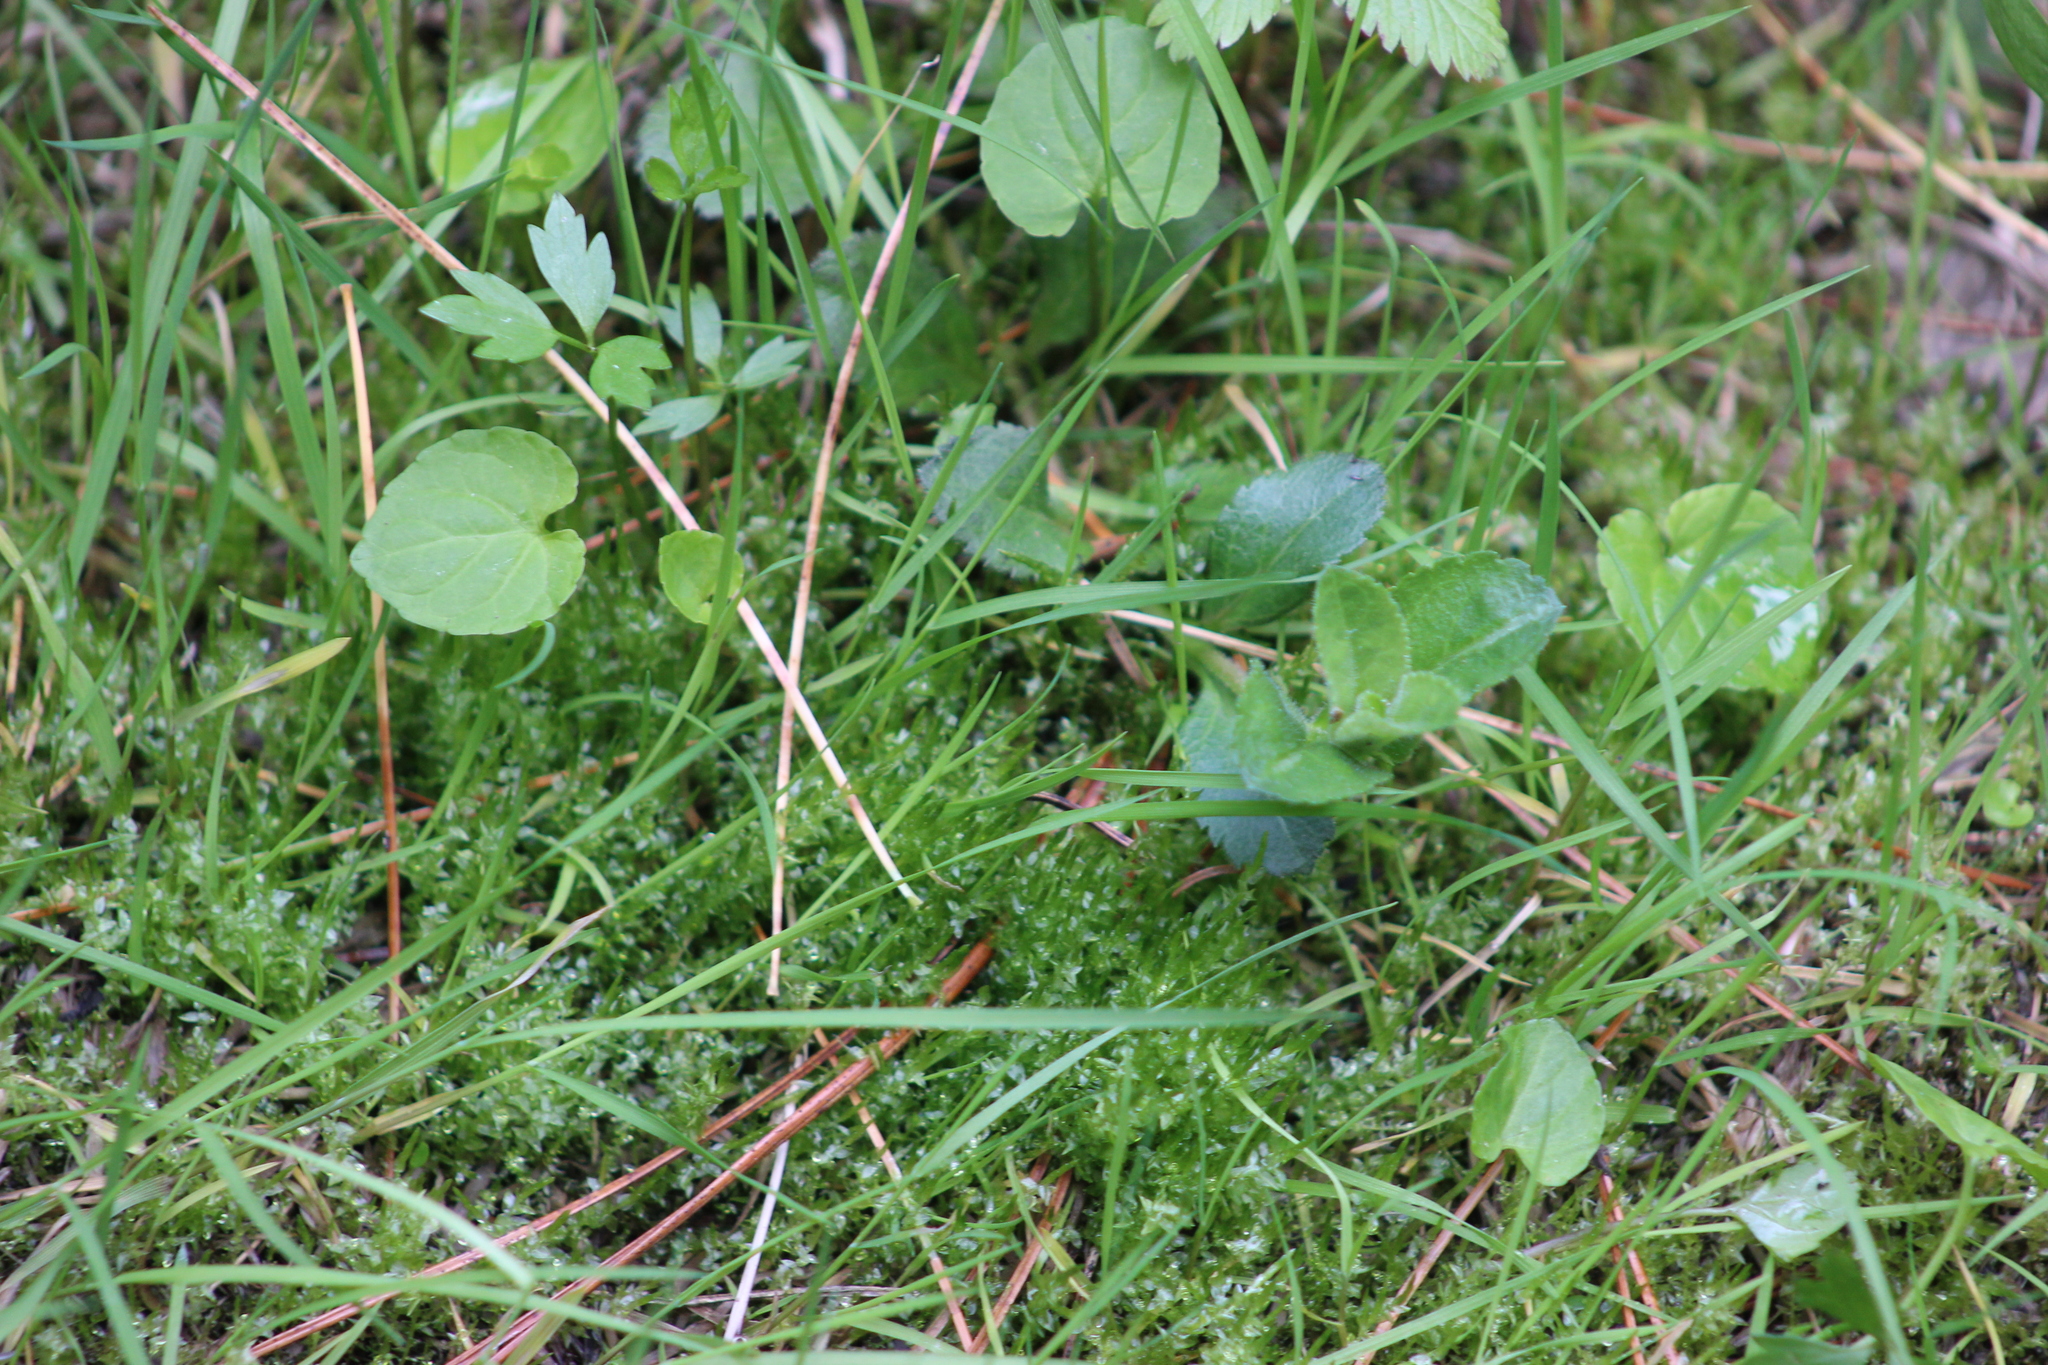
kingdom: Plantae
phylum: Tracheophyta
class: Magnoliopsida
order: Lamiales
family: Plantaginaceae
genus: Veronica
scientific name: Veronica officinalis
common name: Common speedwell
